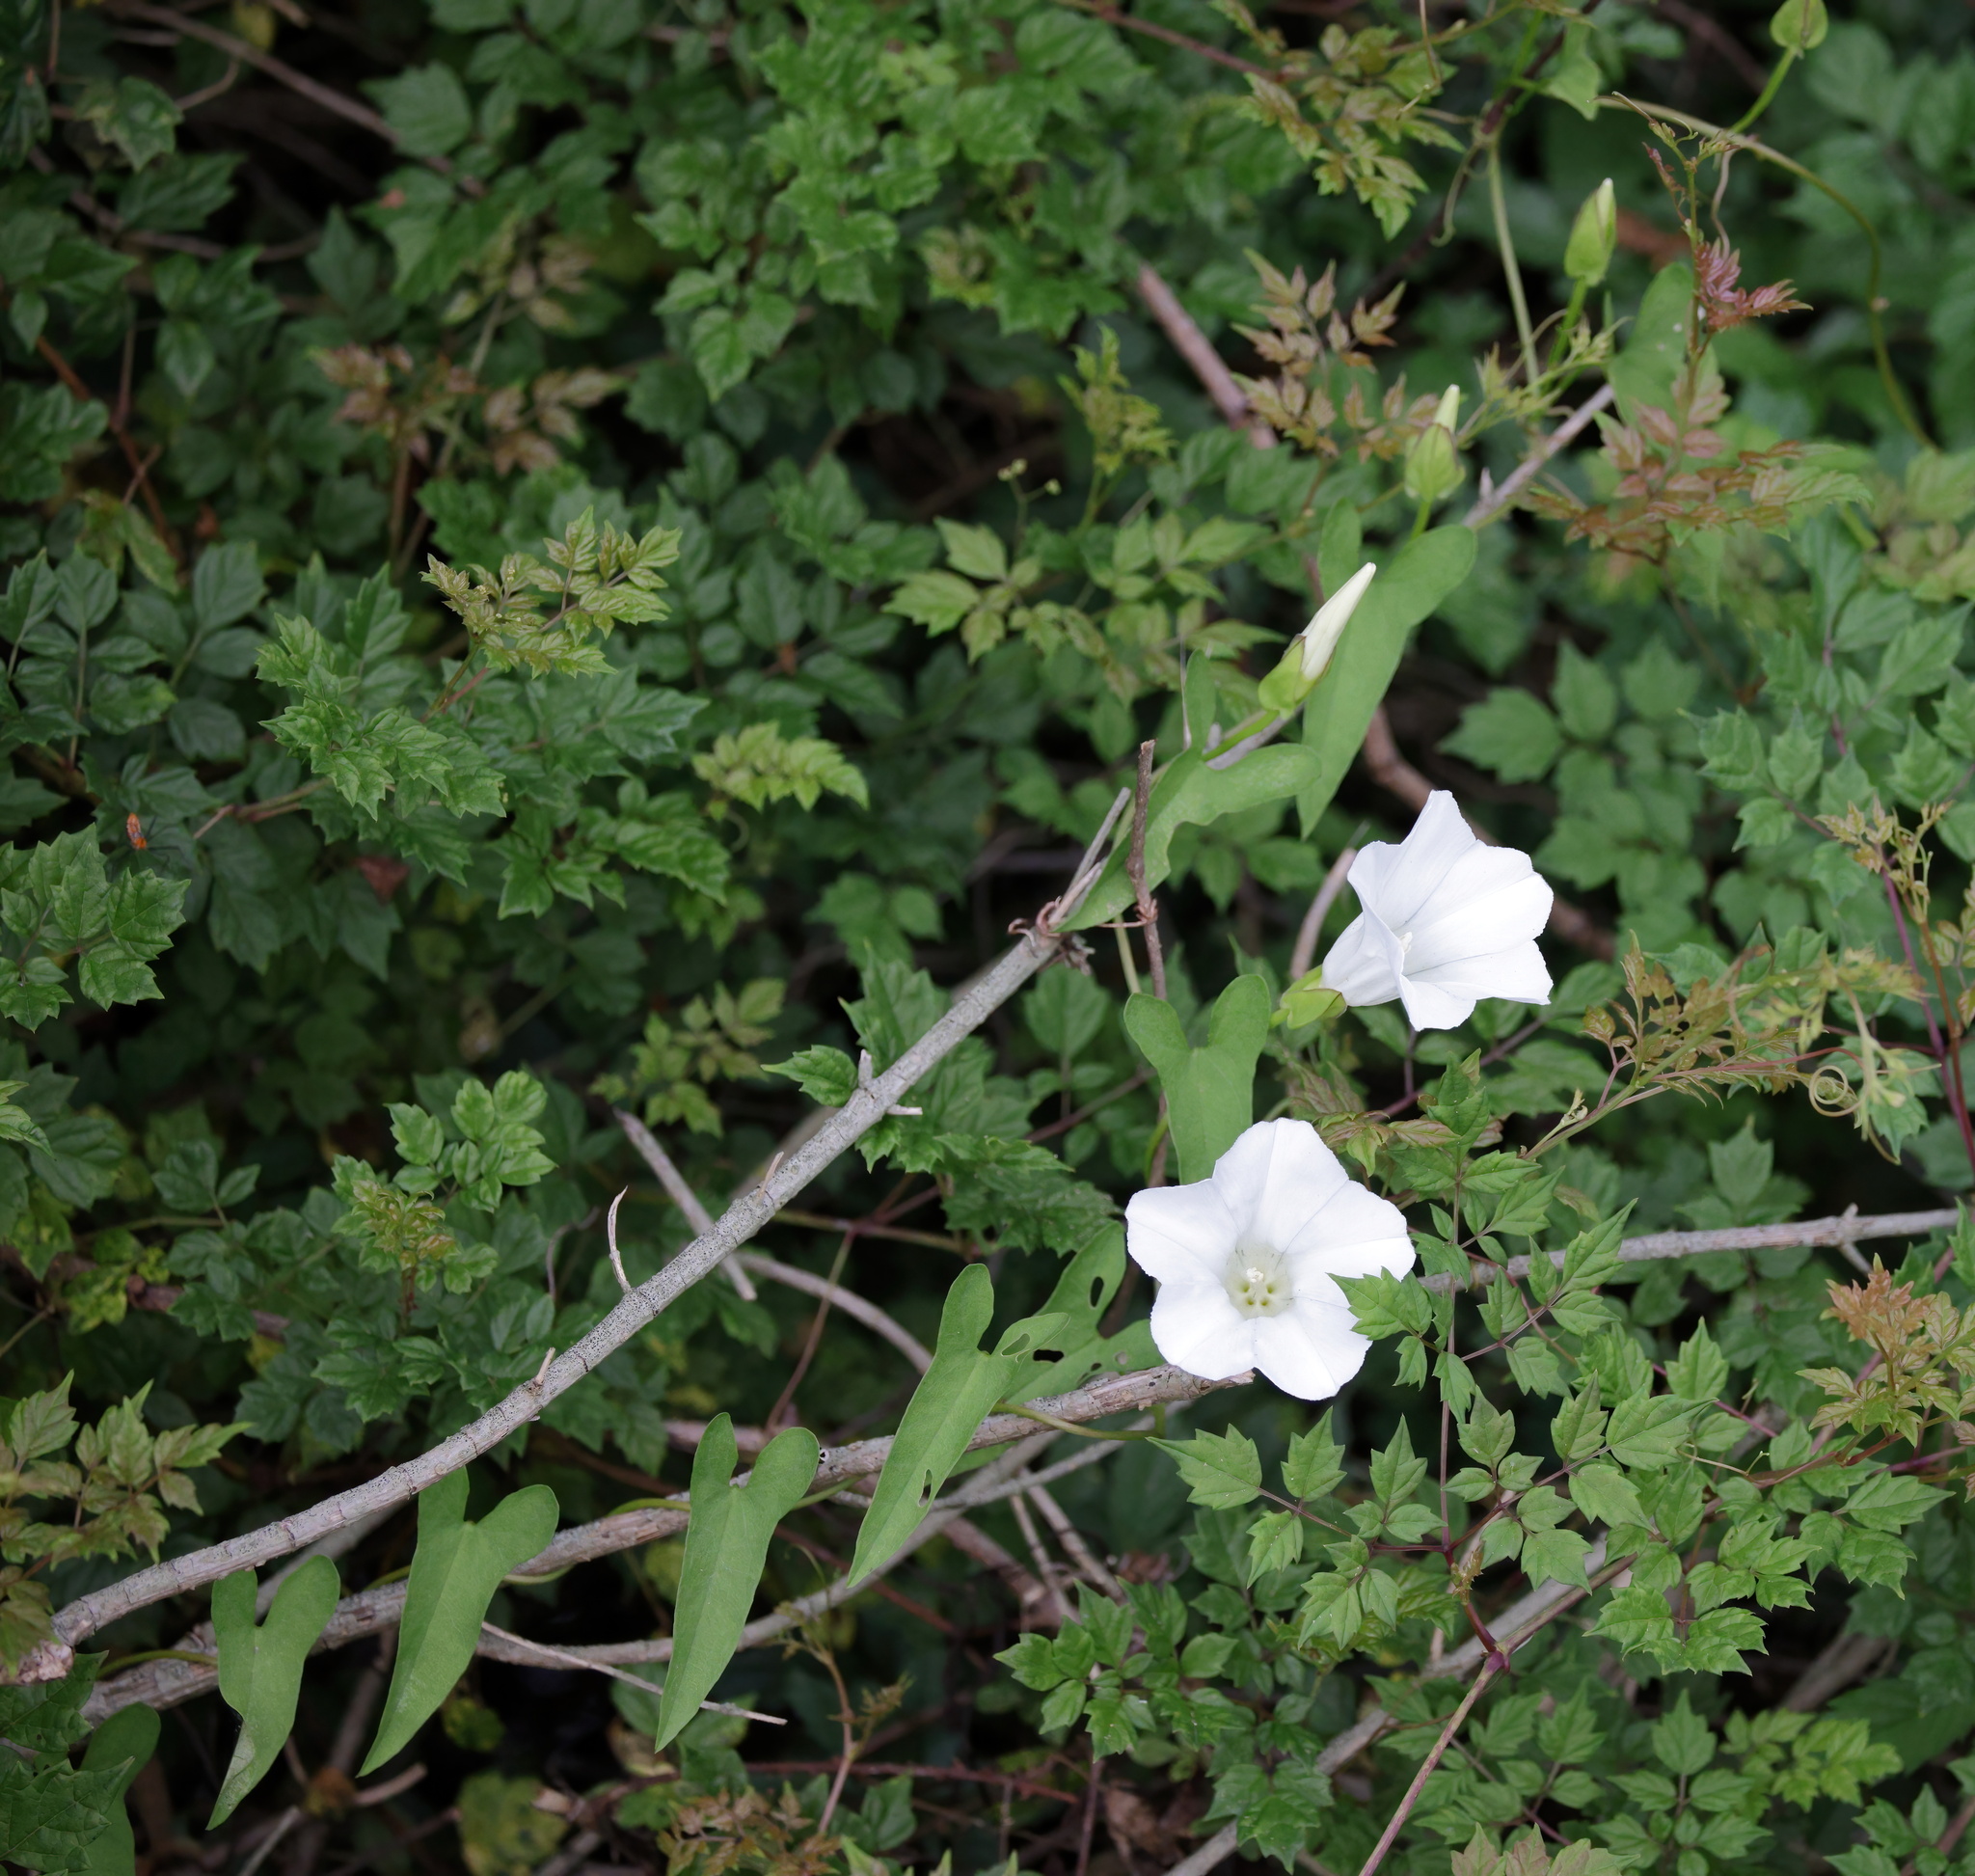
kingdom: Plantae
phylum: Tracheophyta
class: Magnoliopsida
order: Solanales
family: Convolvulaceae
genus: Calystegia
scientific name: Calystegia sepium
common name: Hedge bindweed
